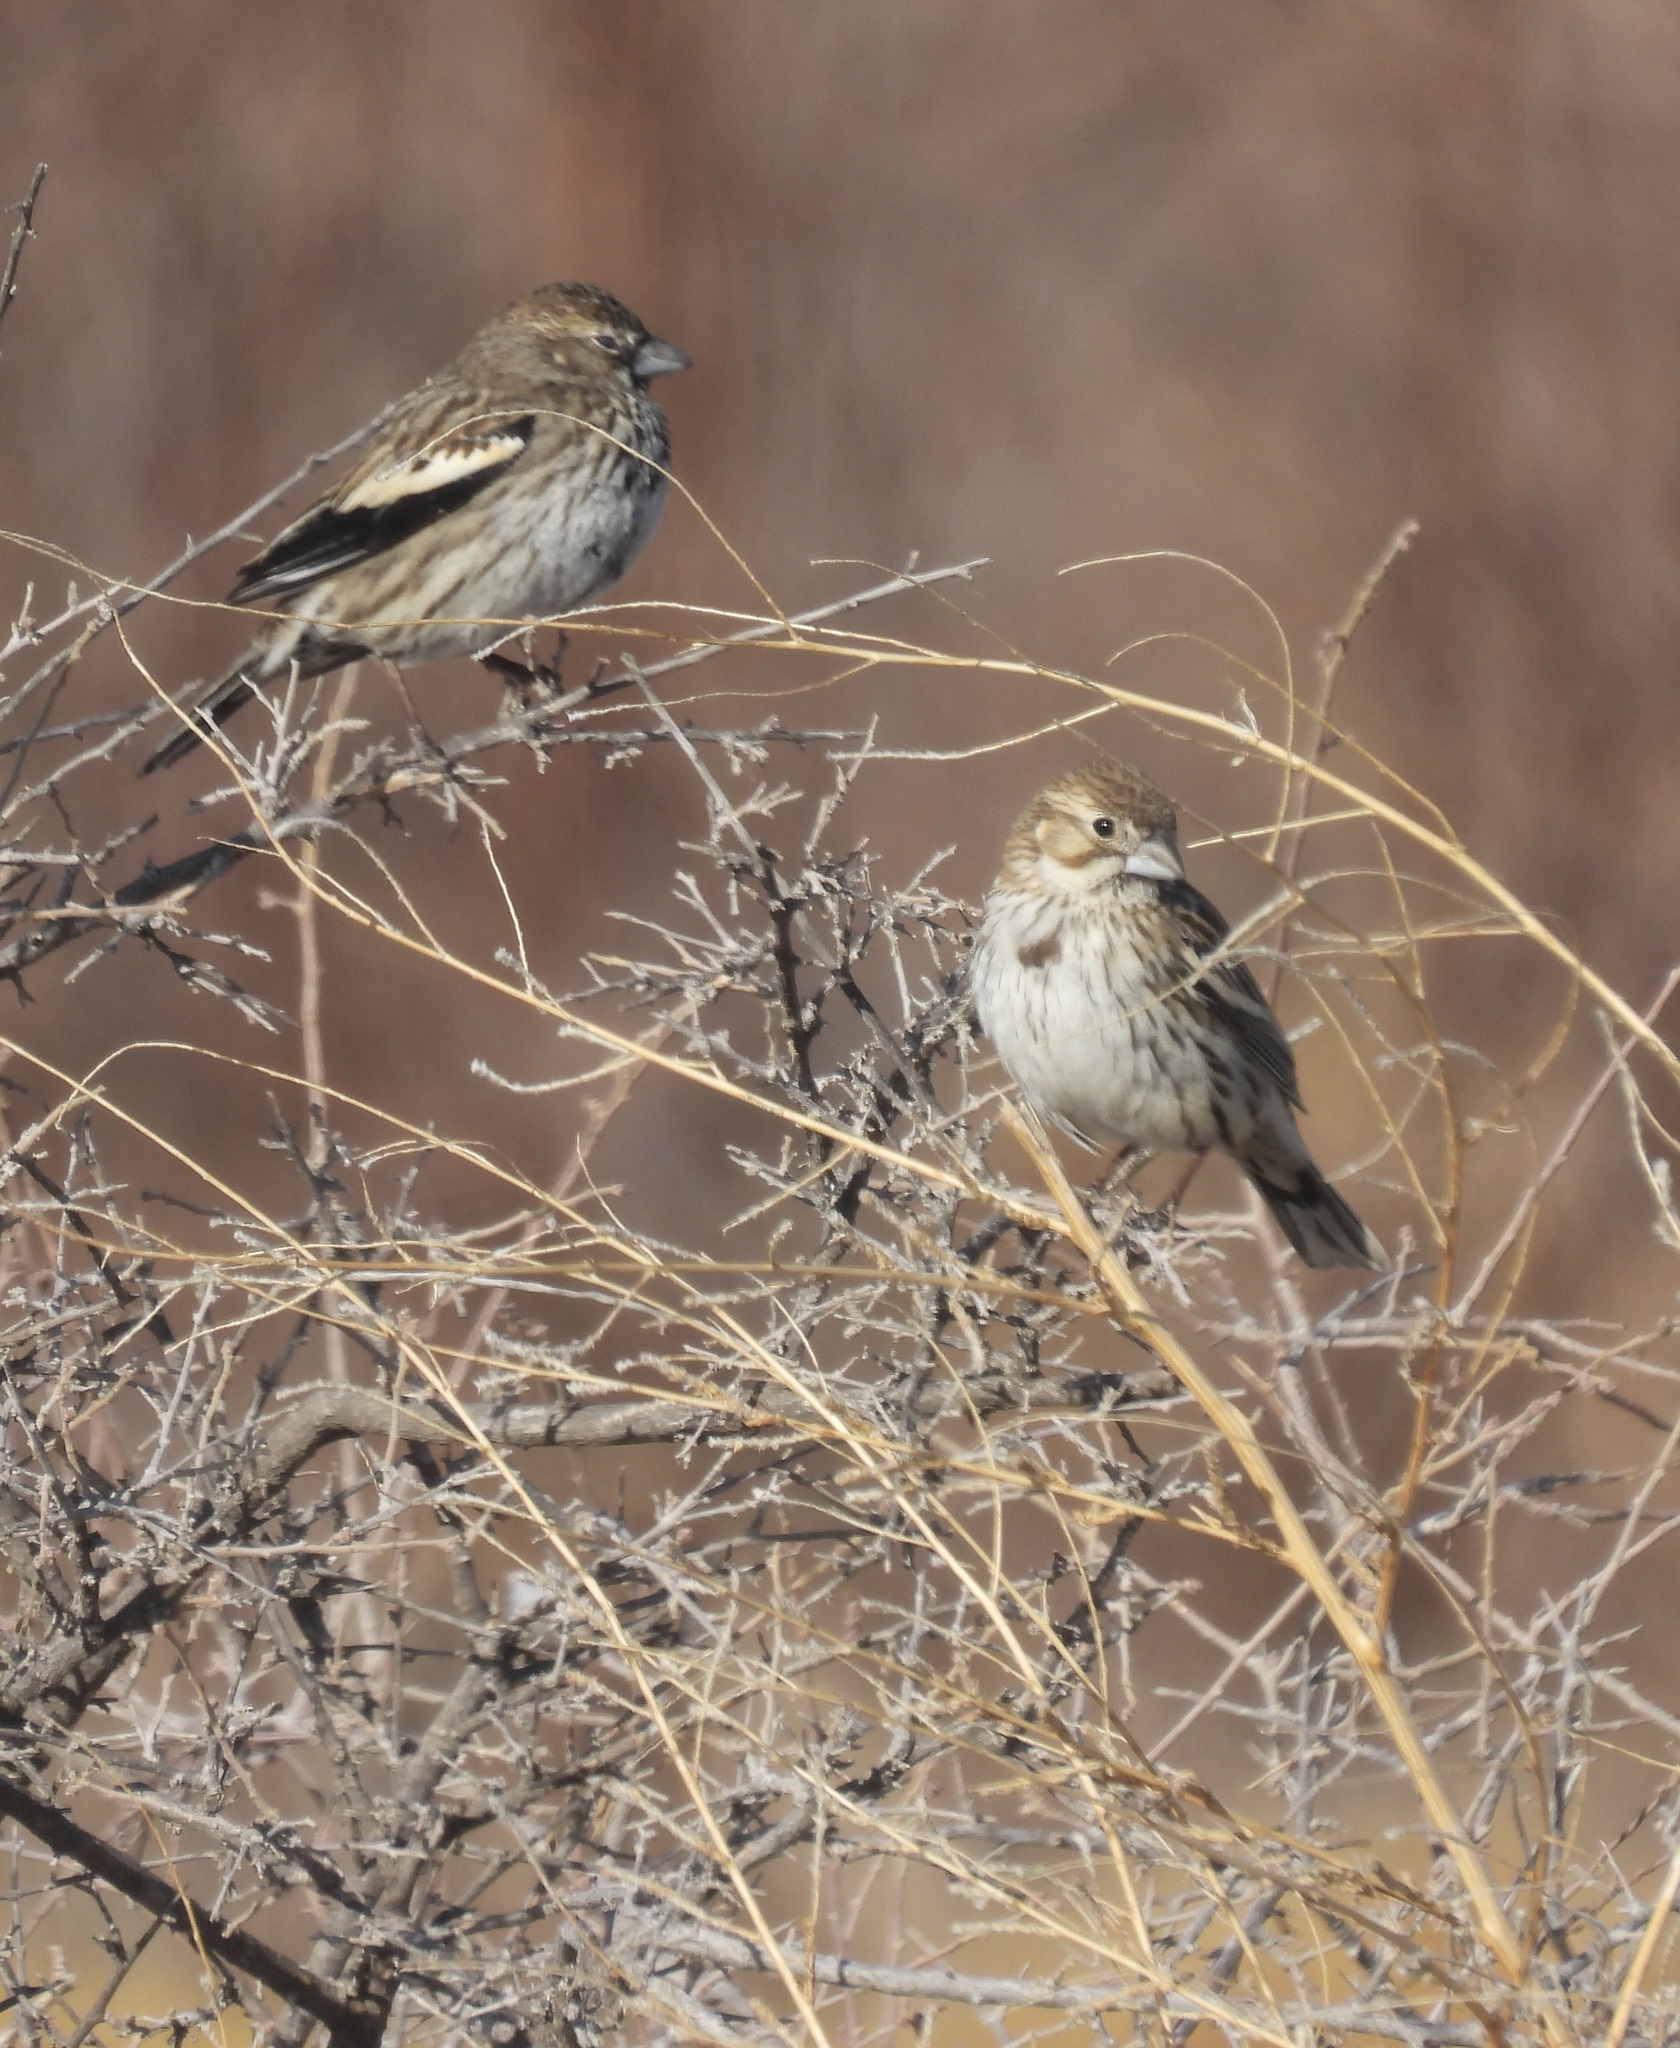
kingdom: Animalia
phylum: Chordata
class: Aves
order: Passeriformes
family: Passerellidae
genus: Calamospiza
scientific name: Calamospiza melanocorys
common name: Lark bunting
